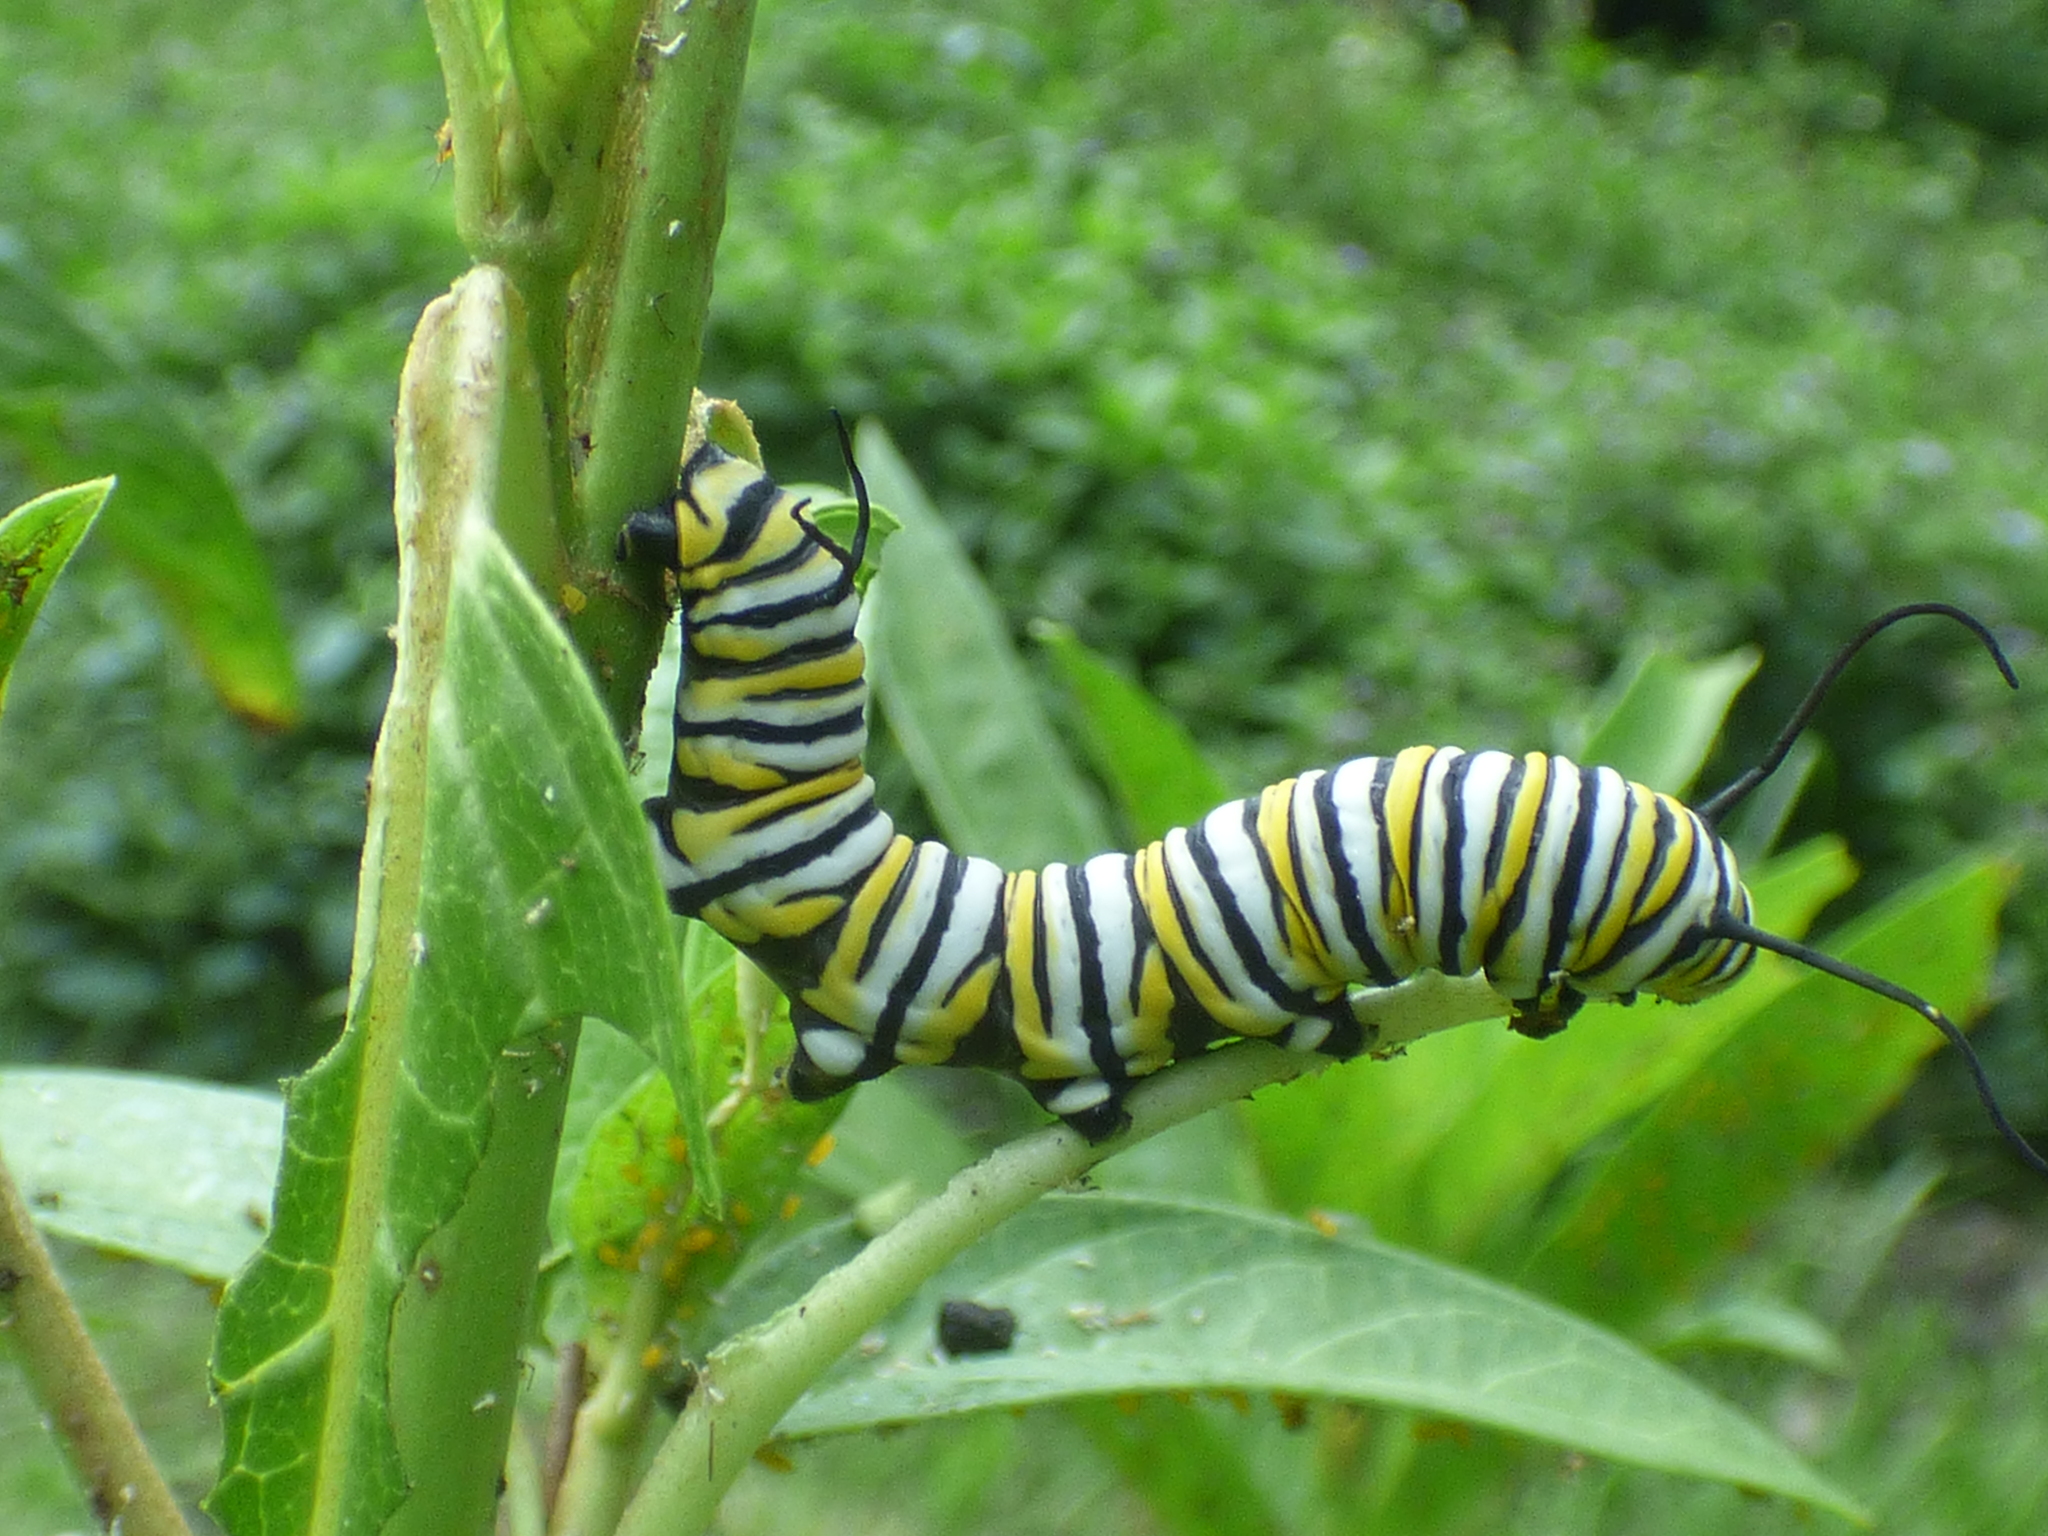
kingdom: Animalia
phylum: Arthropoda
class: Insecta
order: Lepidoptera
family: Nymphalidae
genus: Danaus
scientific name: Danaus plexippus
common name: Monarch
